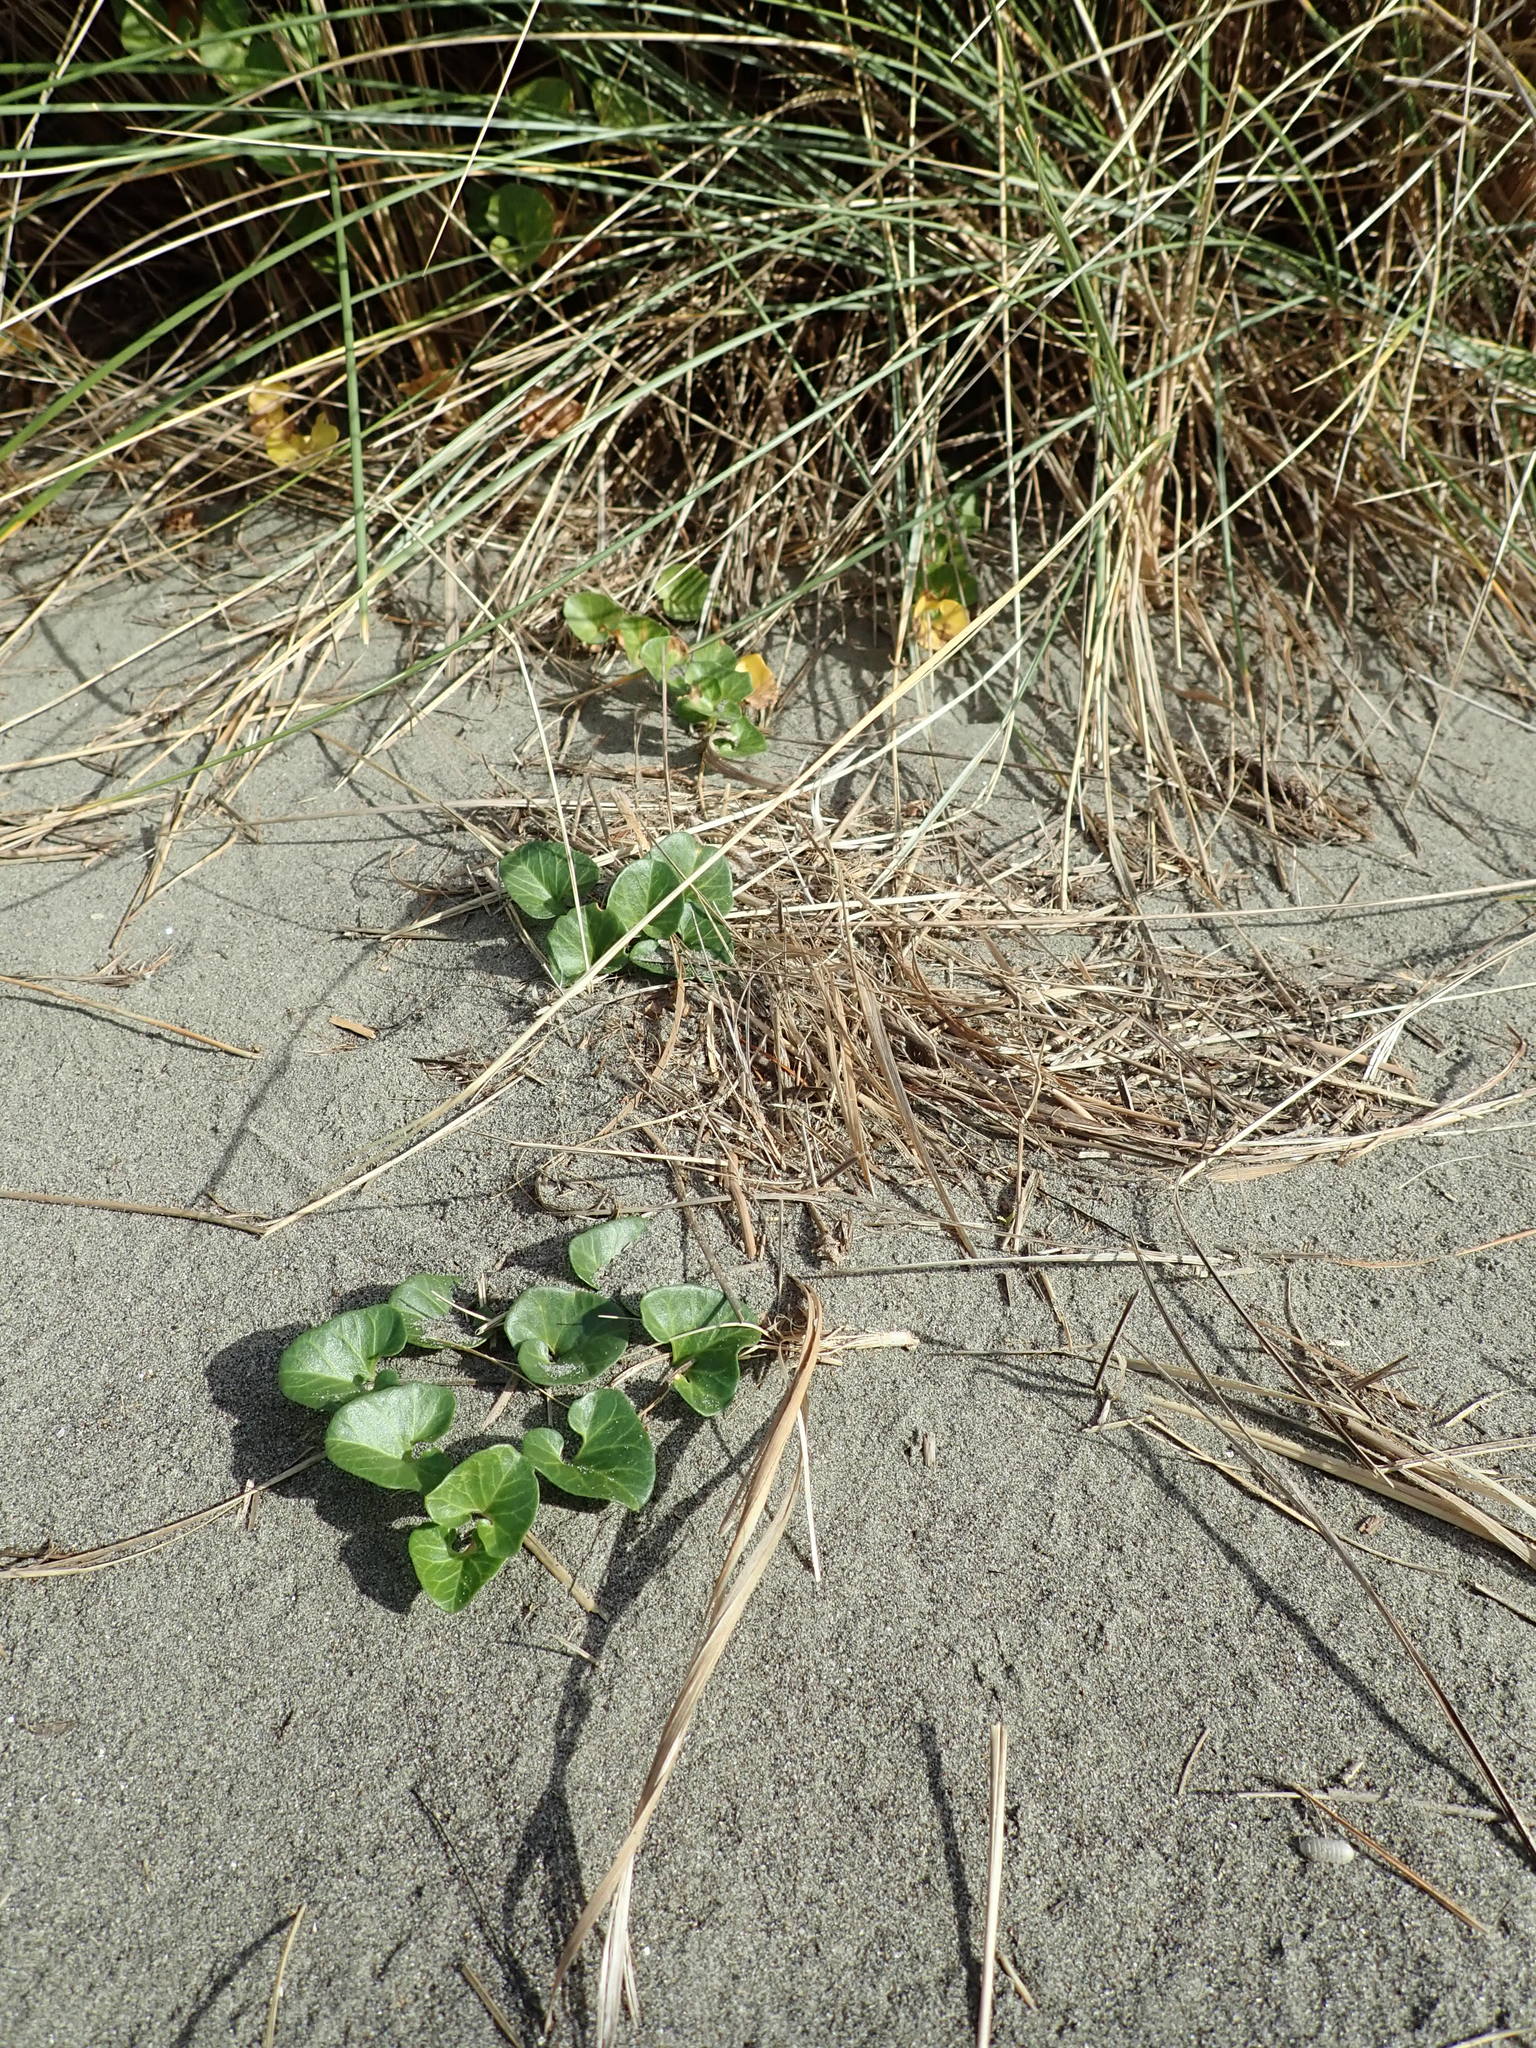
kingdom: Plantae
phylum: Tracheophyta
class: Magnoliopsida
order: Solanales
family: Convolvulaceae
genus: Calystegia
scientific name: Calystegia soldanella
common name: Sea bindweed
